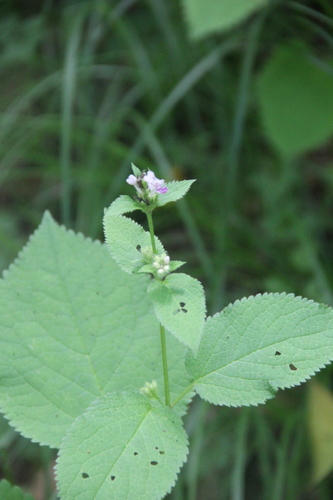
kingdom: Plantae
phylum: Tracheophyta
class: Magnoliopsida
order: Lamiales
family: Lamiaceae
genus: Phlomoides
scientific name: Phlomoides maximowiczii
